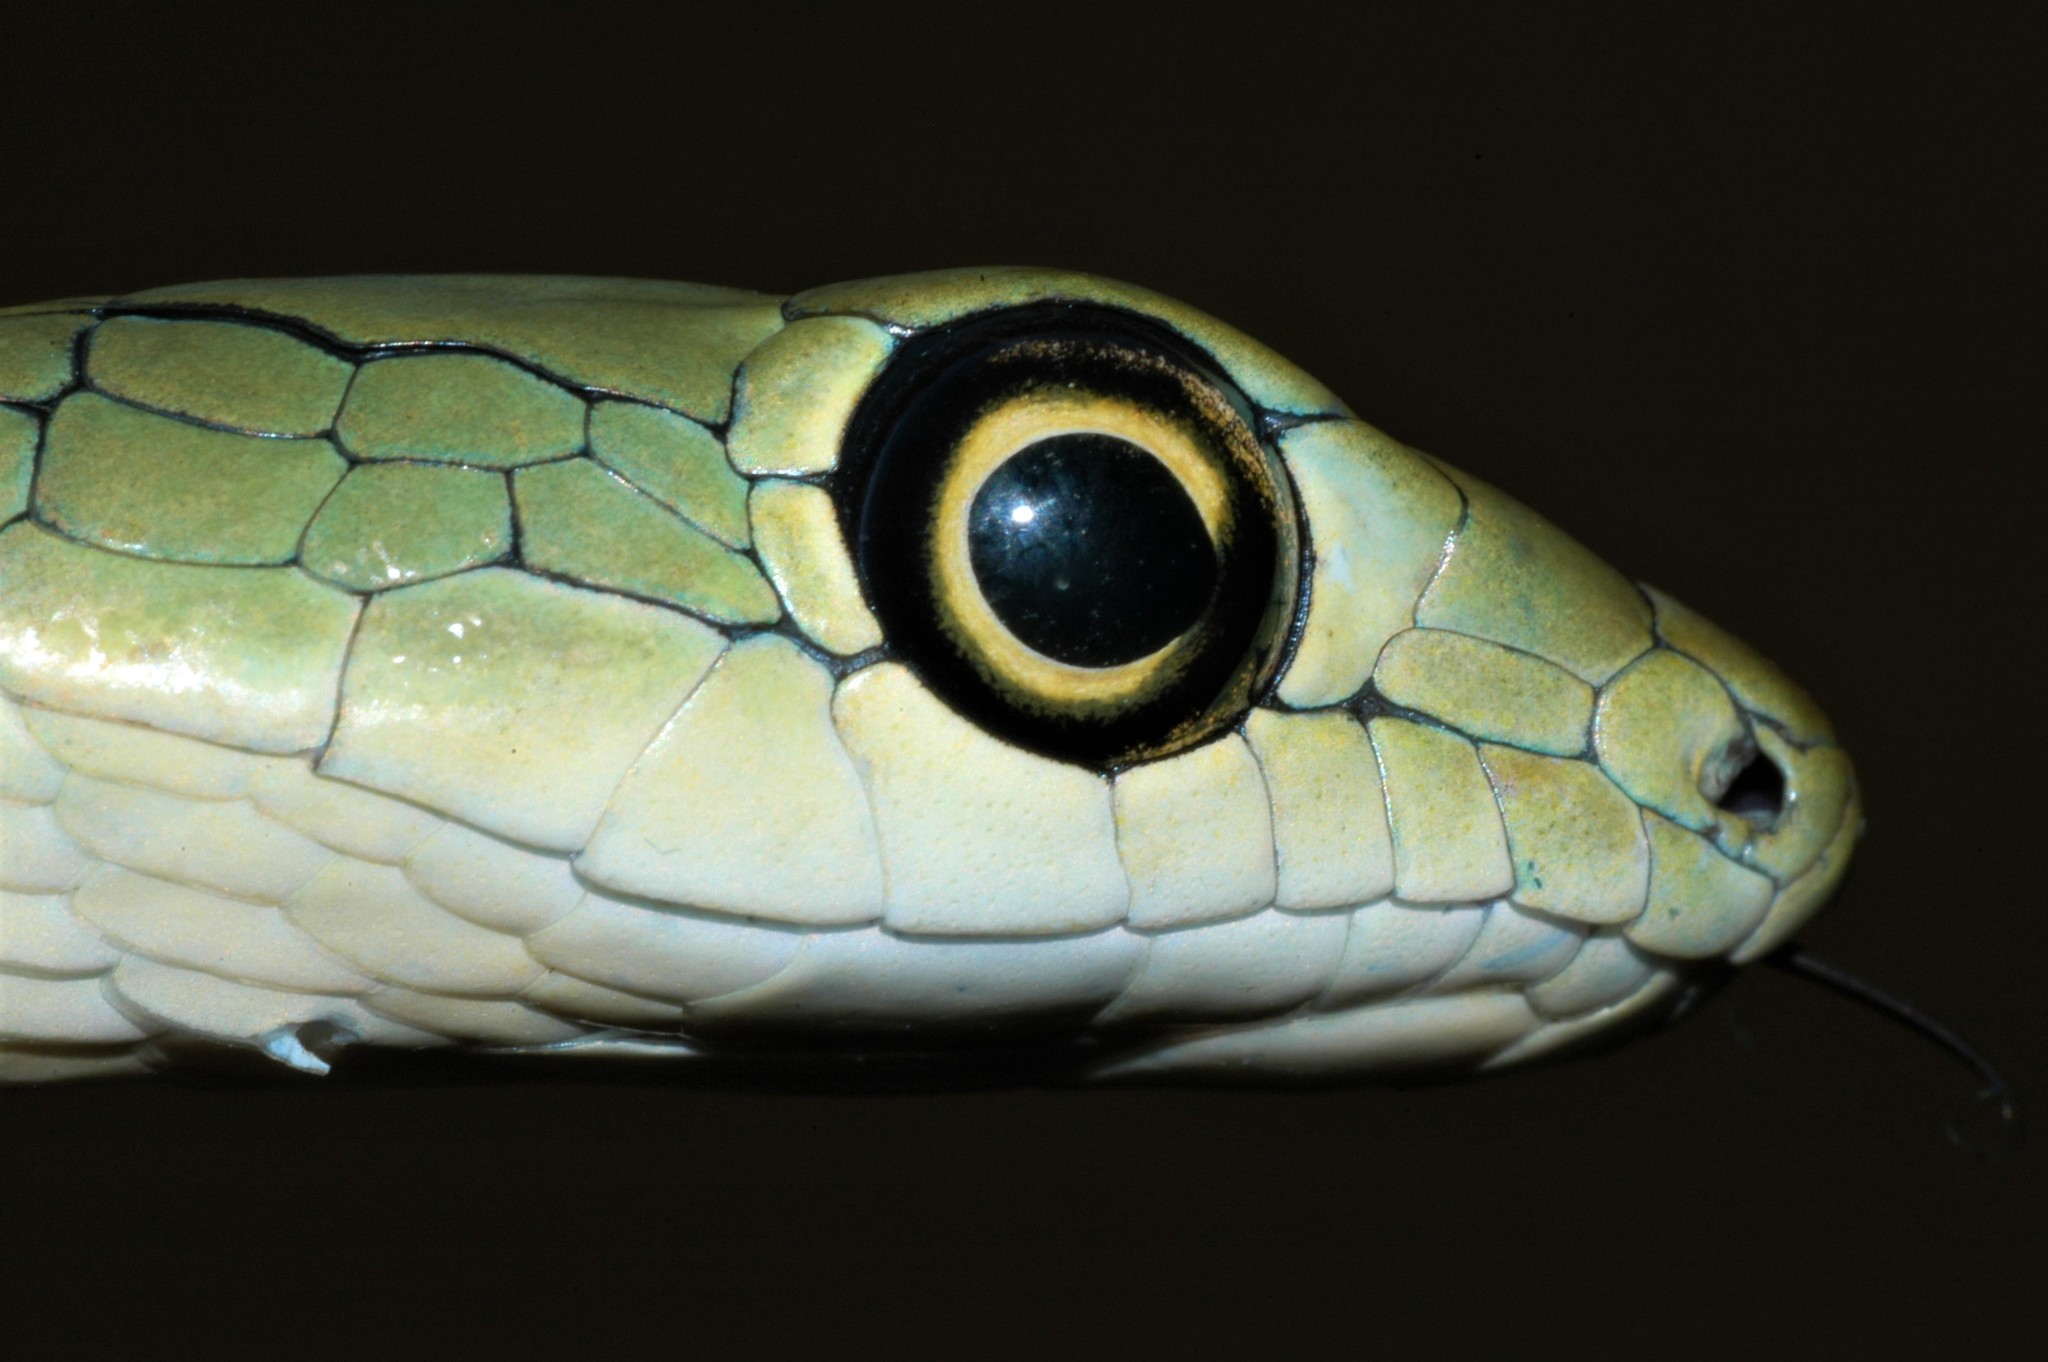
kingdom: Animalia
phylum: Chordata
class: Squamata
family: Colubridae
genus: Philothamnus
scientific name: Philothamnus semivariegatus
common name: Spotted bush snake
